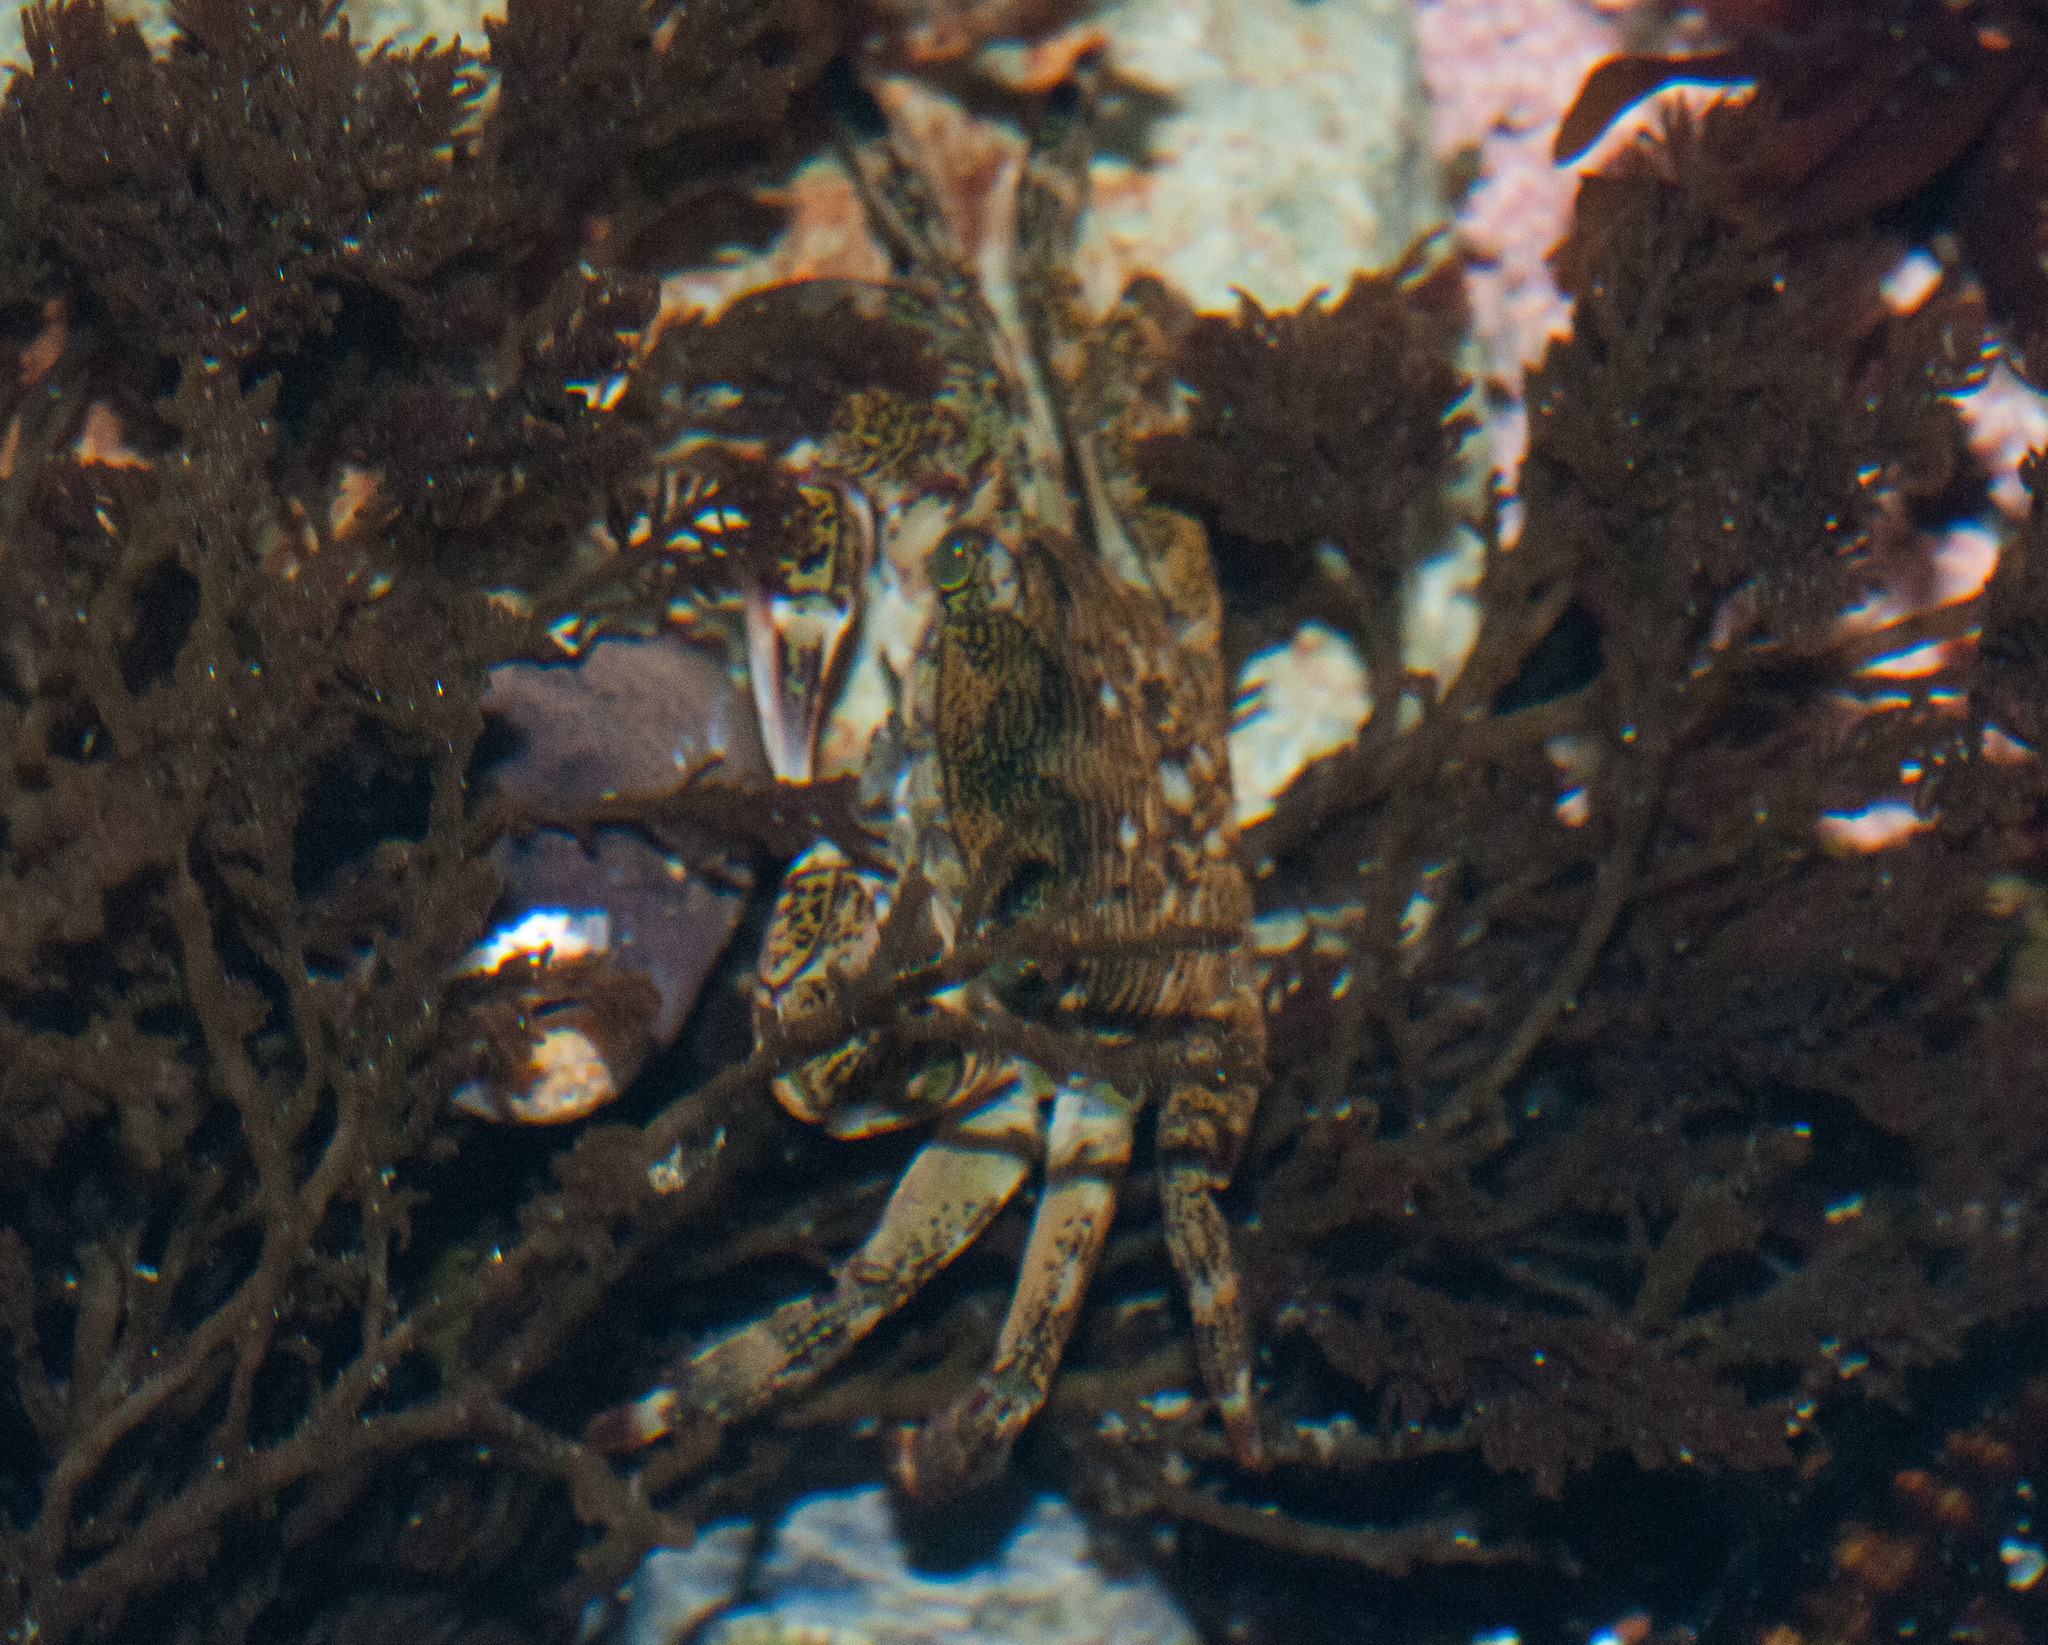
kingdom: Animalia
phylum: Arthropoda
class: Malacostraca
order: Decapoda
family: Grapsidae
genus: Pachygrapsus
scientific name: Pachygrapsus crassipes
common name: Striped shore crab
